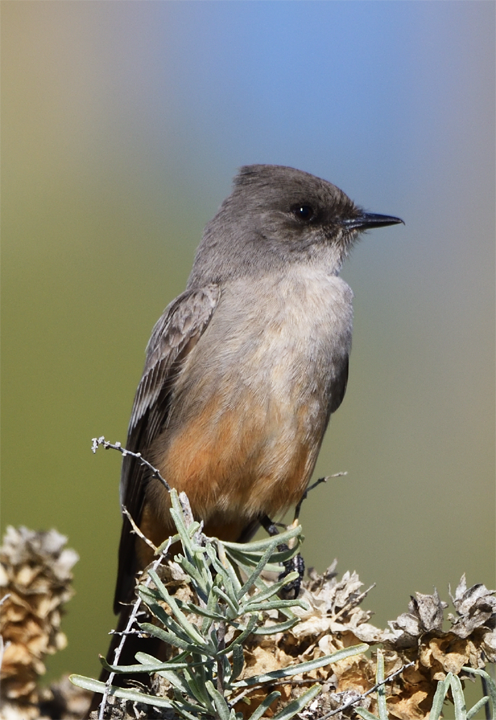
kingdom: Animalia
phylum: Chordata
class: Aves
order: Passeriformes
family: Tyrannidae
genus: Sayornis
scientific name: Sayornis saya
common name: Say's phoebe
